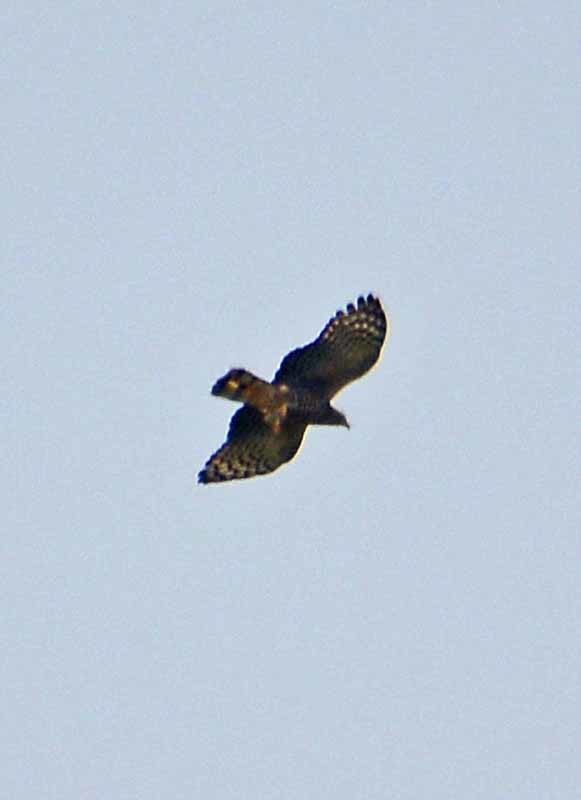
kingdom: Animalia
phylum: Chordata
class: Aves
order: Accipitriformes
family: Accipitridae
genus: Chondrohierax
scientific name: Chondrohierax uncinatus
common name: Hook-billed kite
